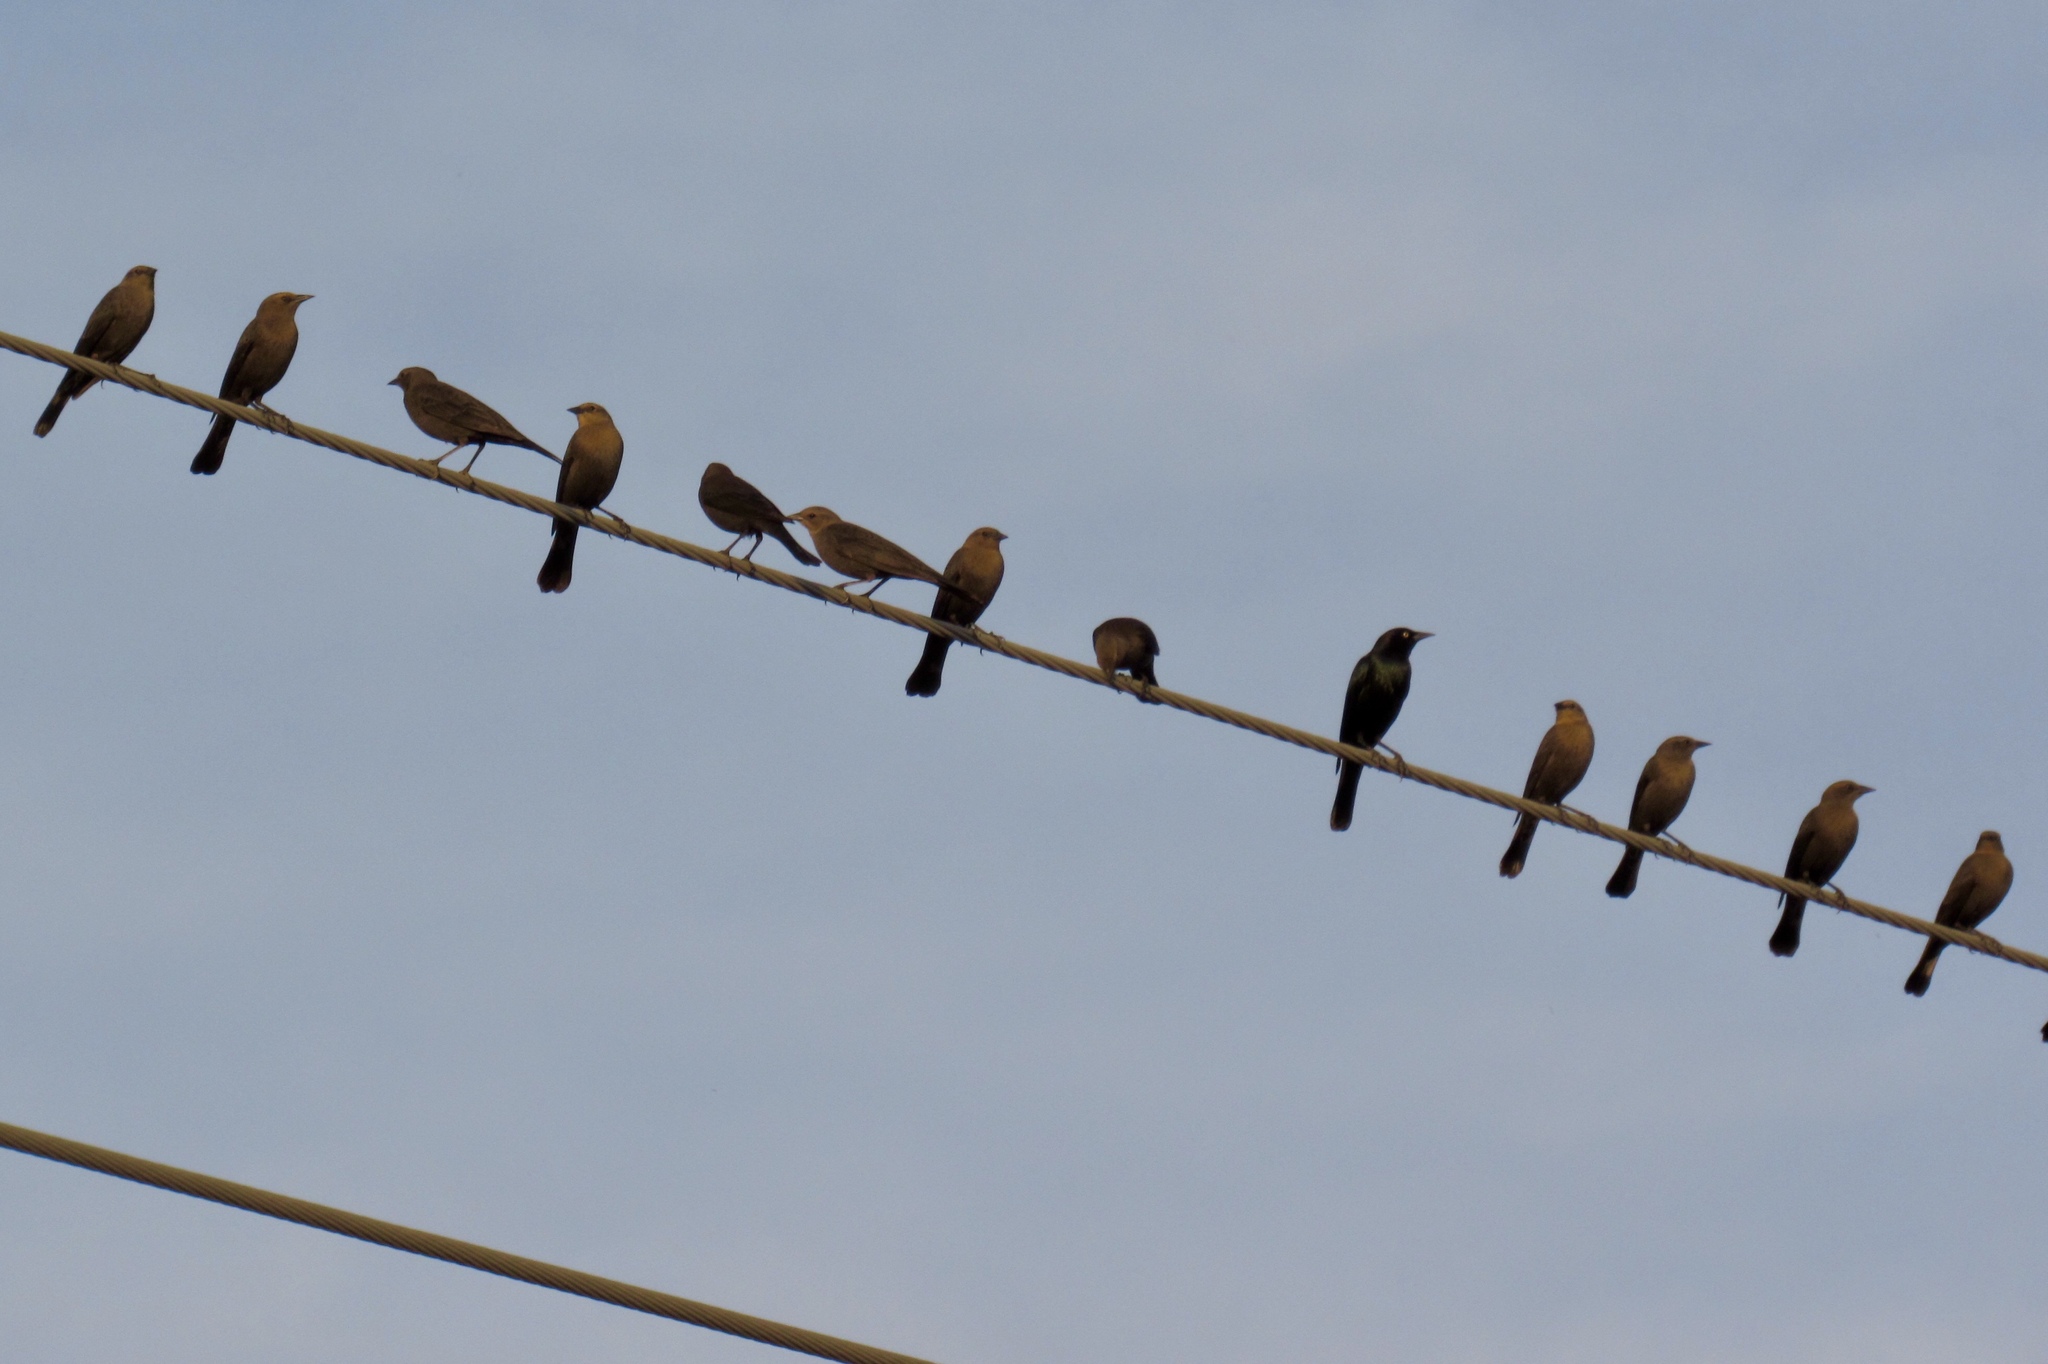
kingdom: Animalia
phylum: Chordata
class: Aves
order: Passeriformes
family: Icteridae
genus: Euphagus
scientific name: Euphagus cyanocephalus
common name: Brewer's blackbird
